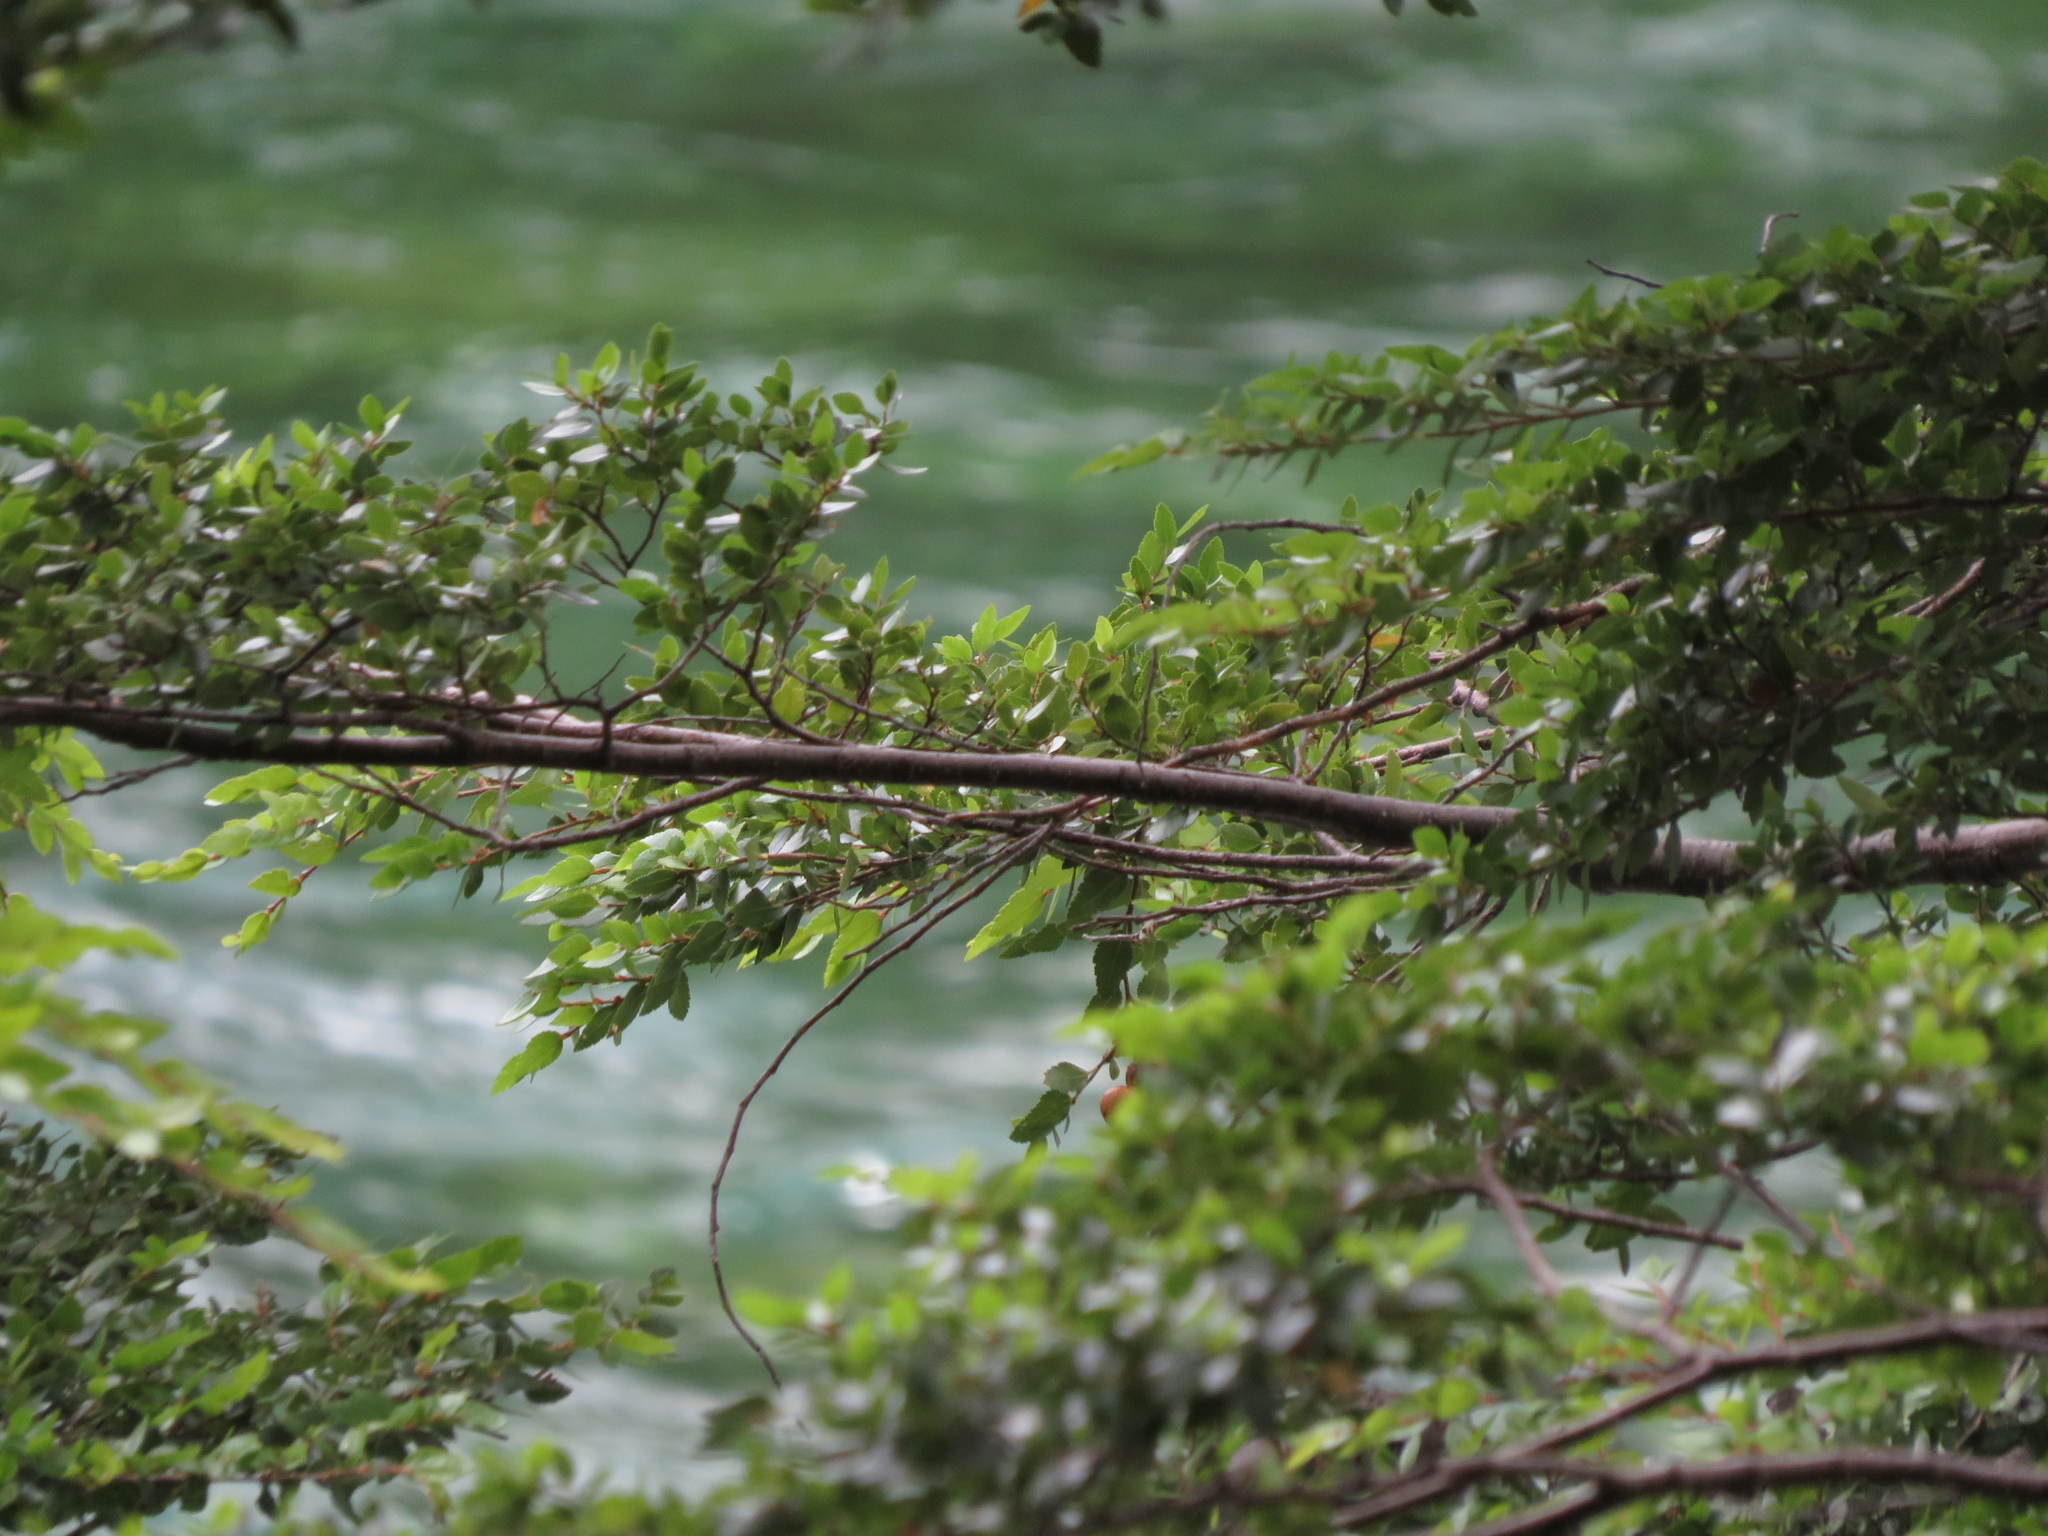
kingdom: Plantae
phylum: Tracheophyta
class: Magnoliopsida
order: Fagales
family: Nothofagaceae
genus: Nothofagus
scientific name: Nothofagus dombeyi
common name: Coigue
